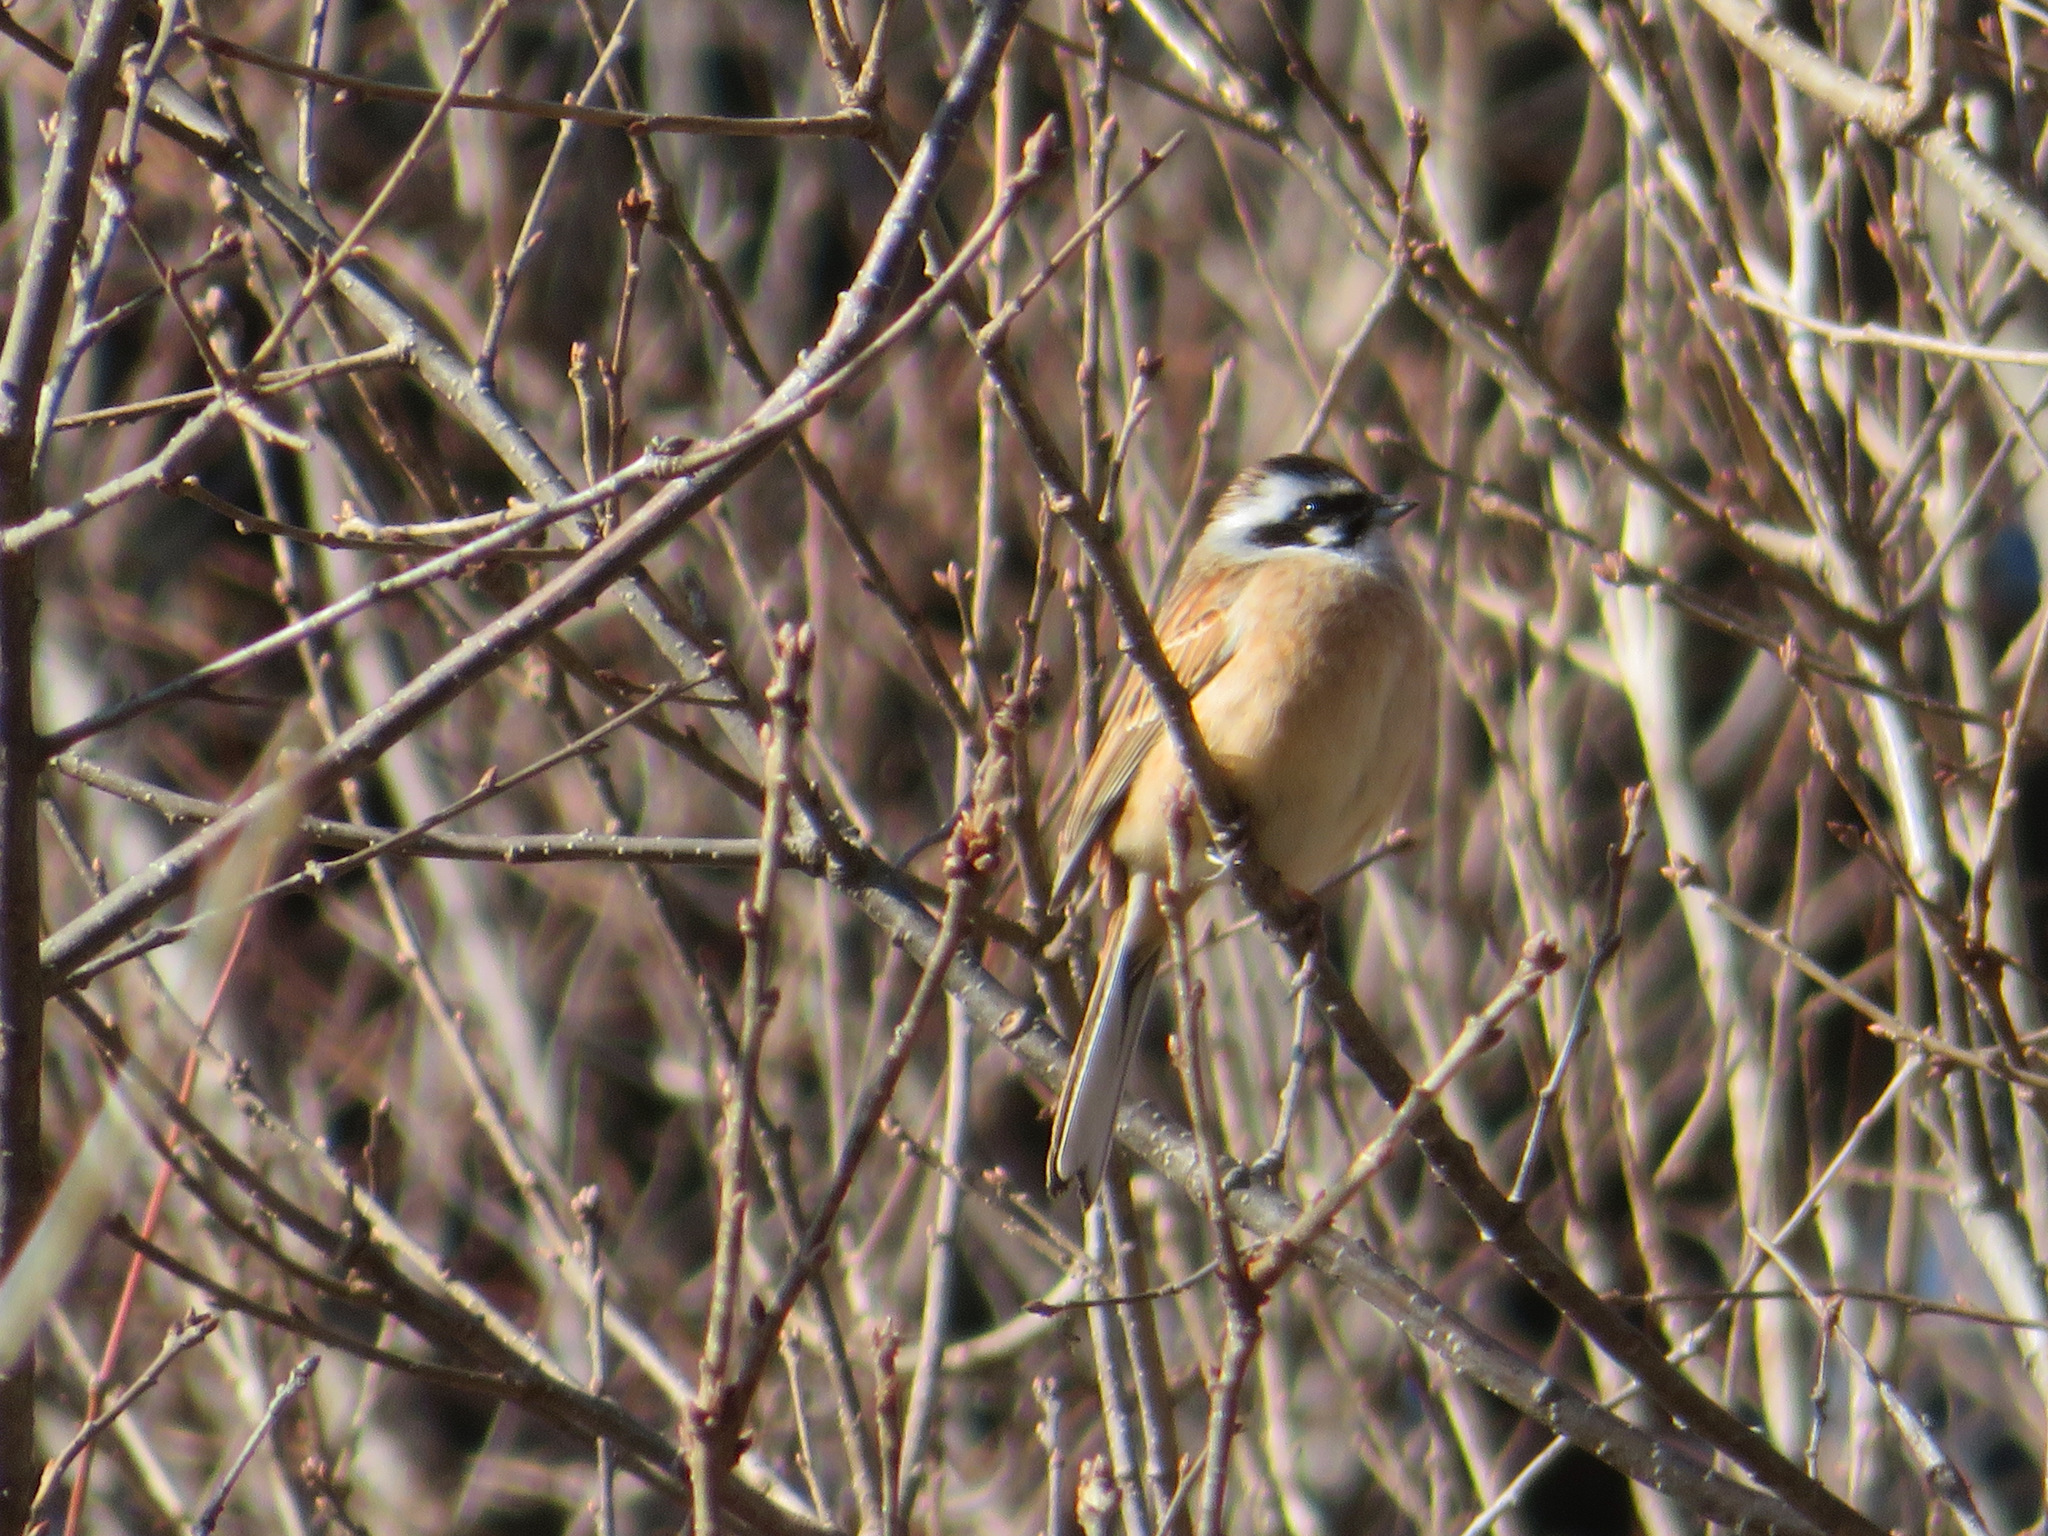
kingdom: Animalia
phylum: Chordata
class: Aves
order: Passeriformes
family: Emberizidae
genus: Emberiza
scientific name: Emberiza cioides
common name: Meadow bunting
